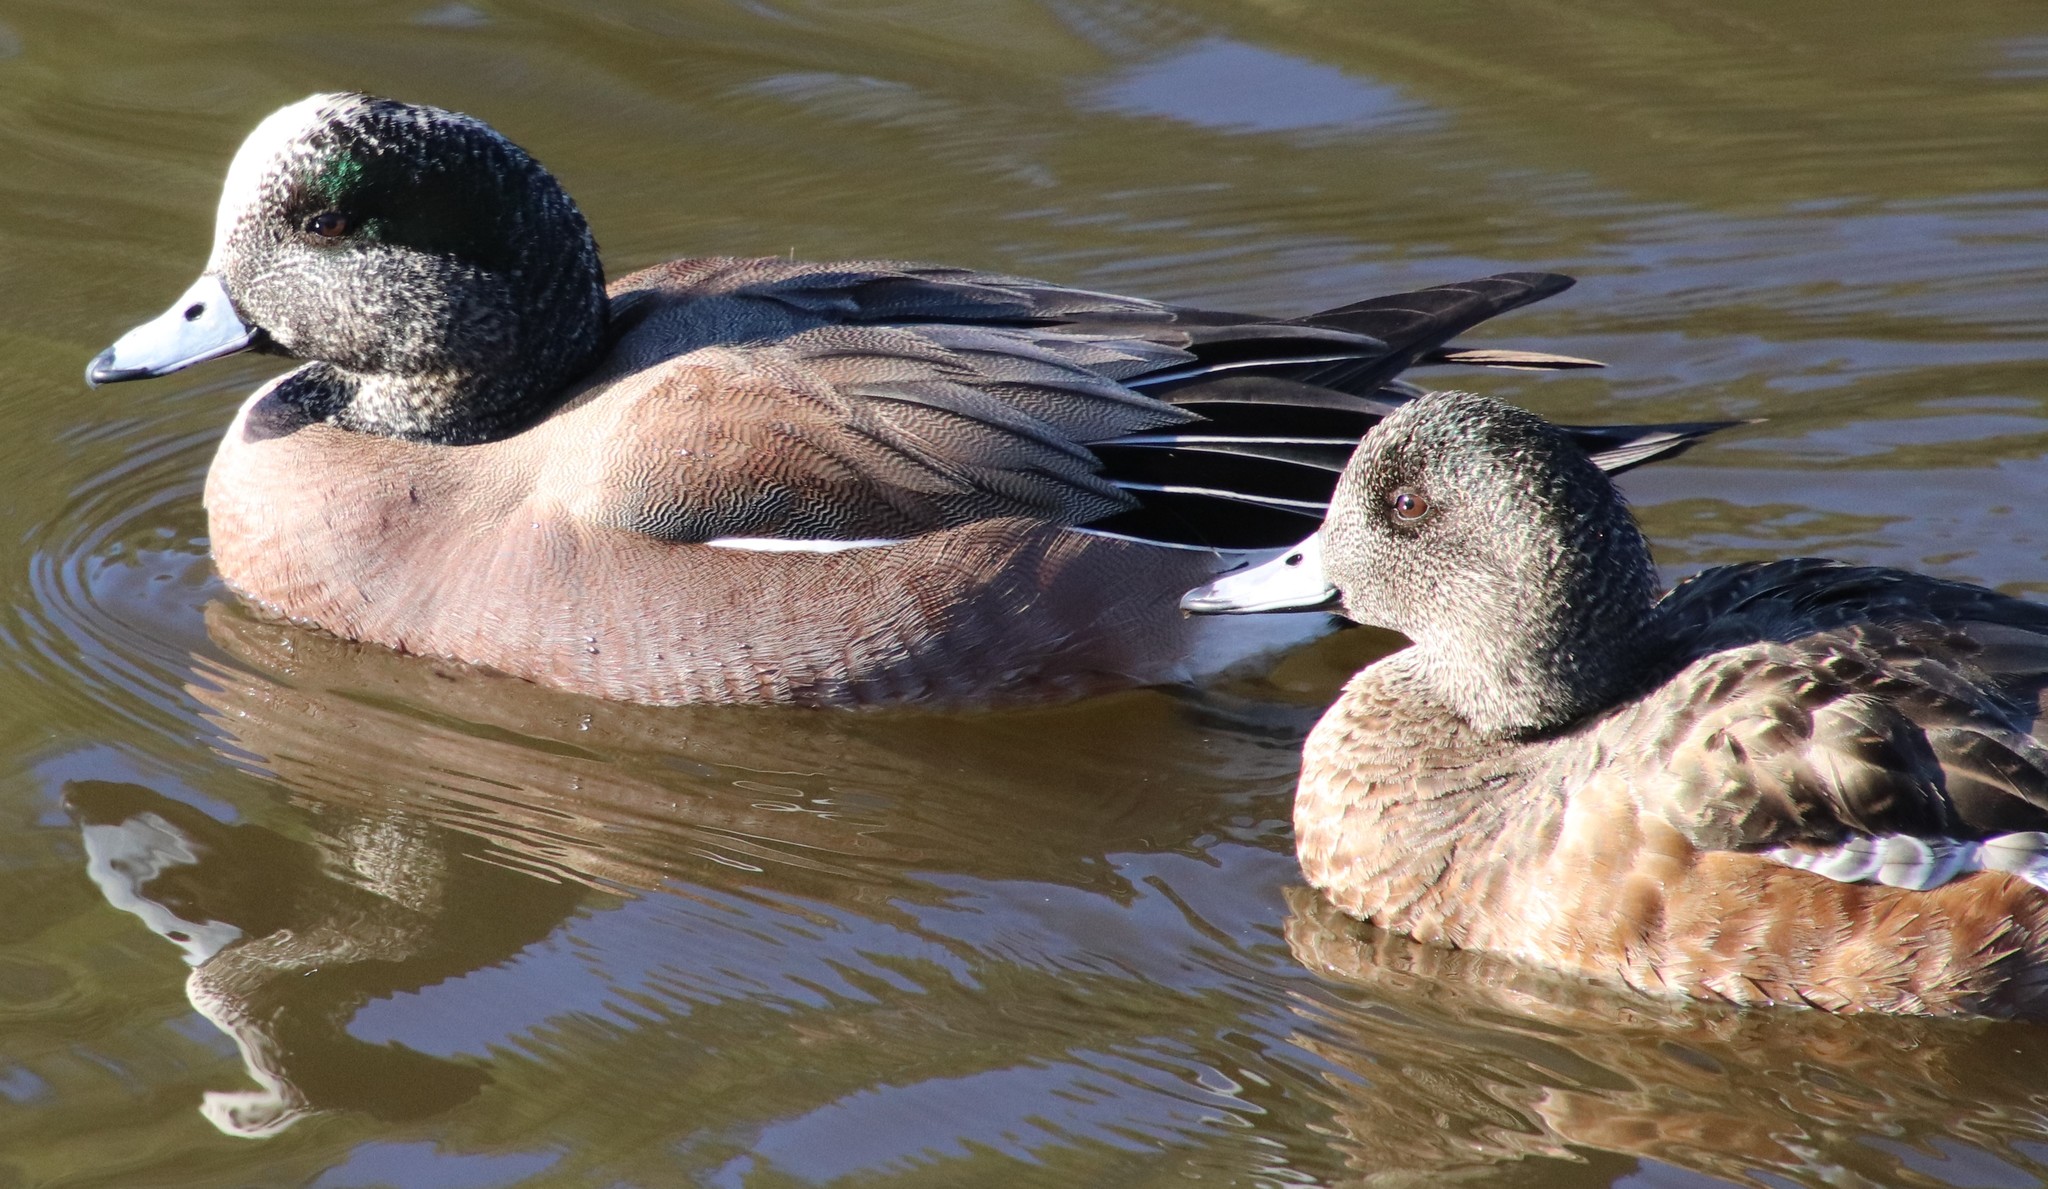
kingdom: Animalia
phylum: Chordata
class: Aves
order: Anseriformes
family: Anatidae
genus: Mareca
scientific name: Mareca americana
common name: American wigeon
